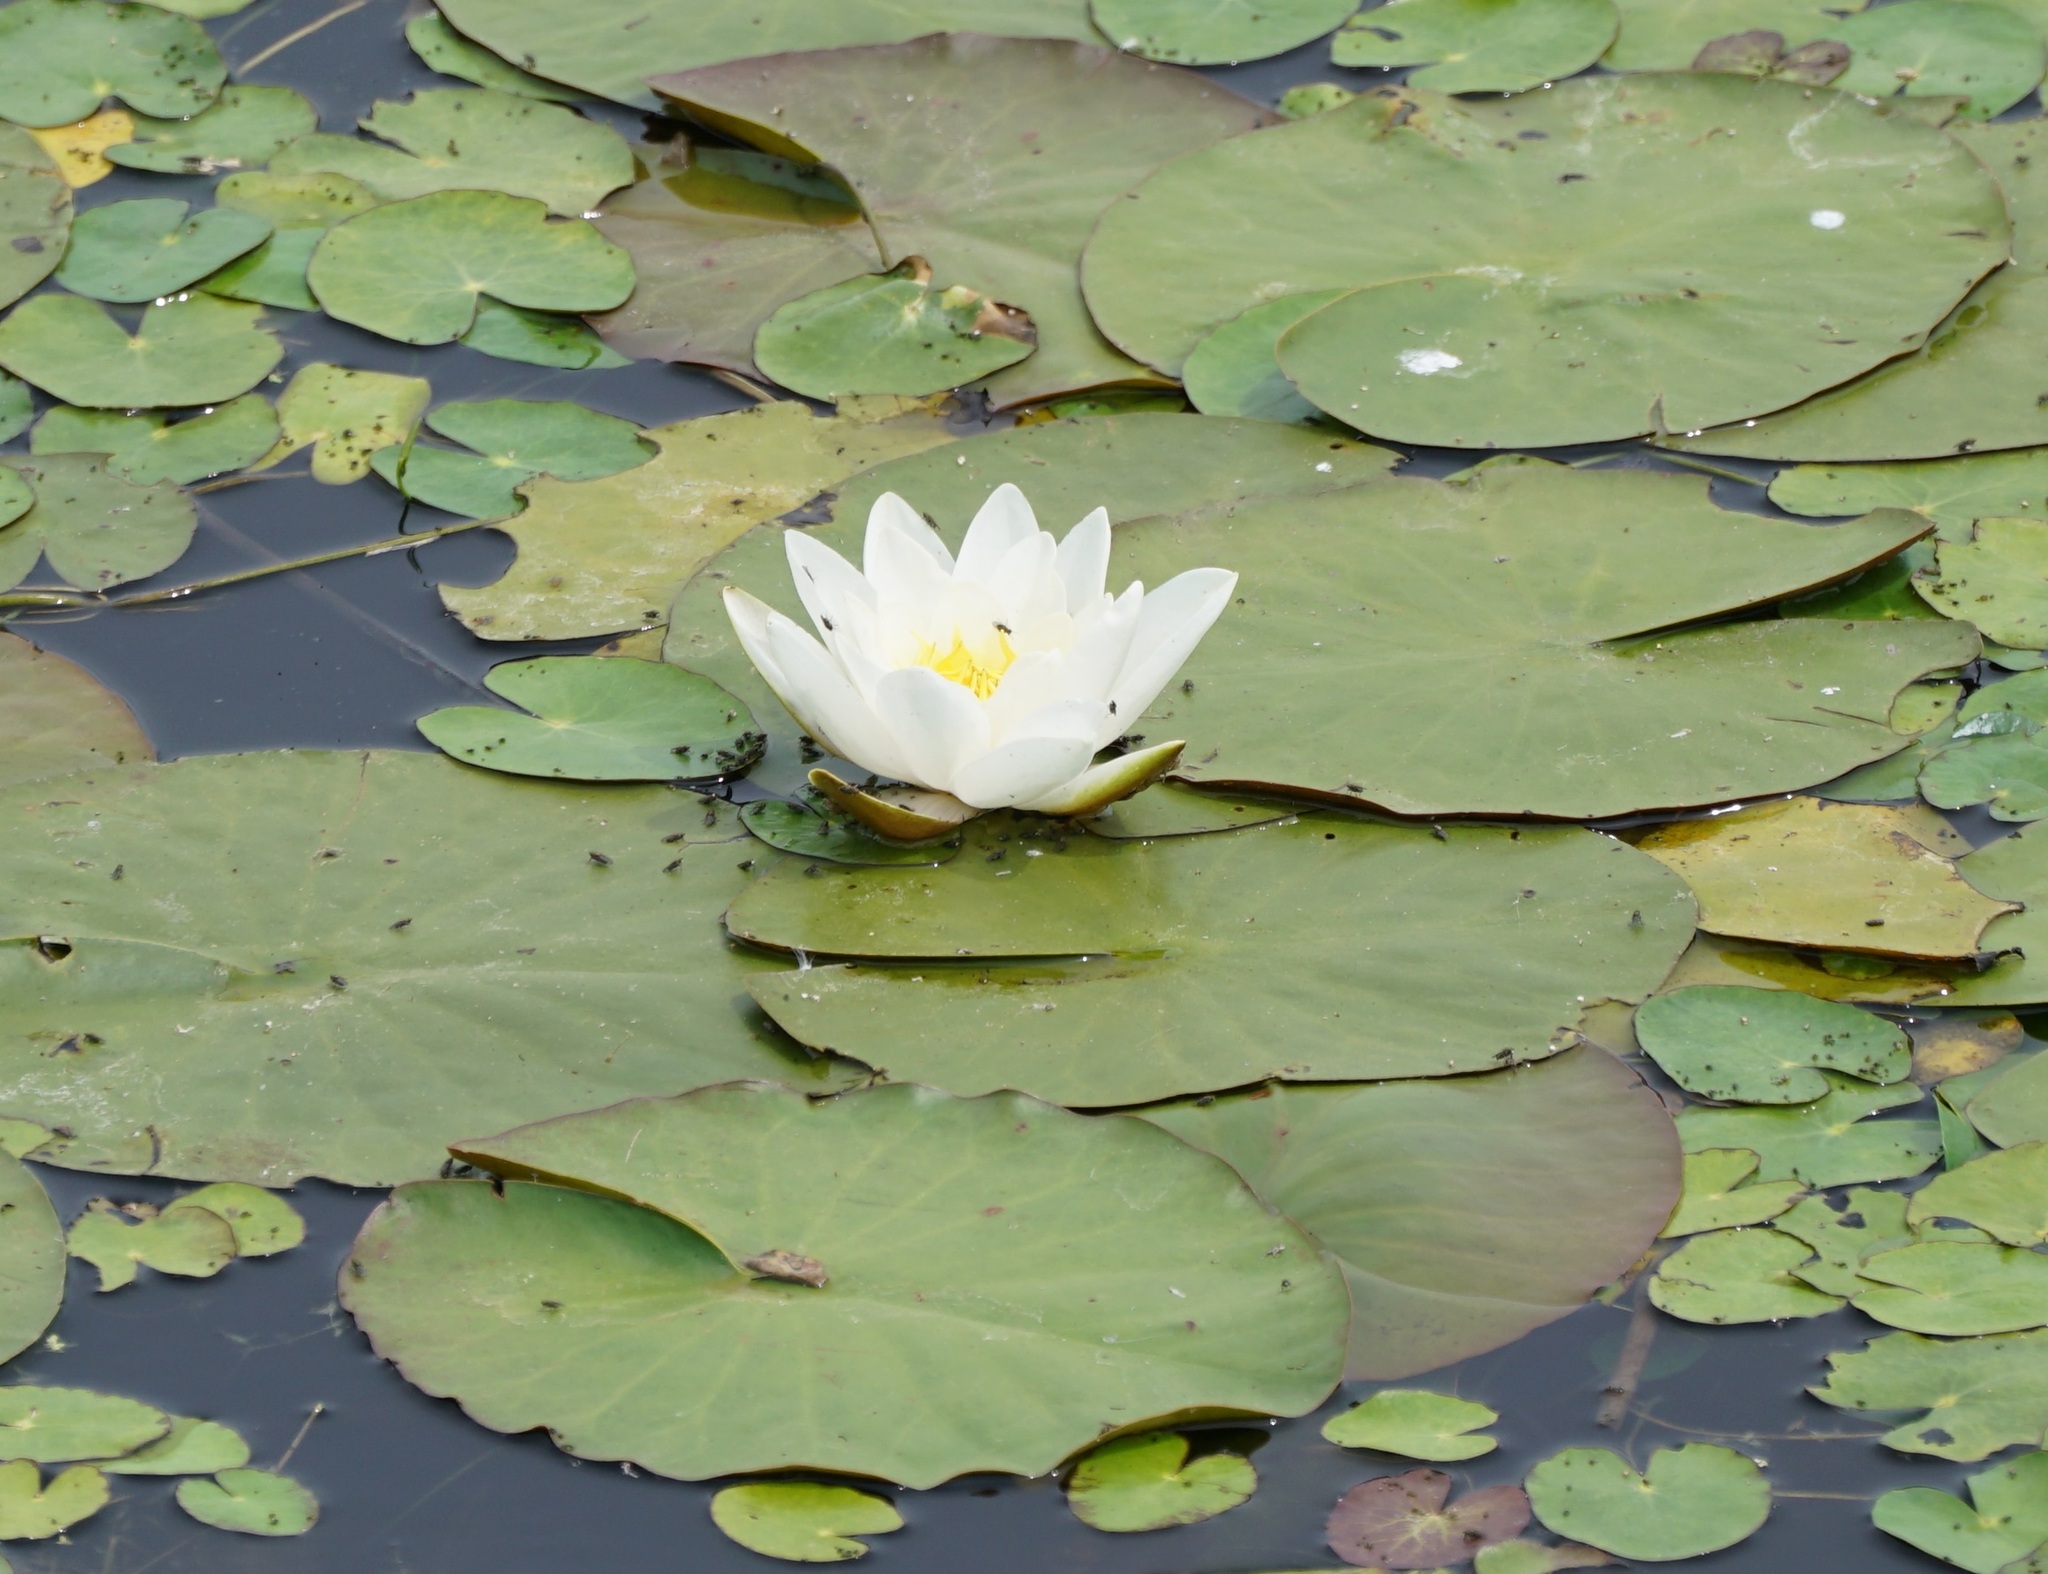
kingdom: Plantae
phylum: Tracheophyta
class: Magnoliopsida
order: Nymphaeales
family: Nymphaeaceae
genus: Nymphaea
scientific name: Nymphaea alba
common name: White water-lily
